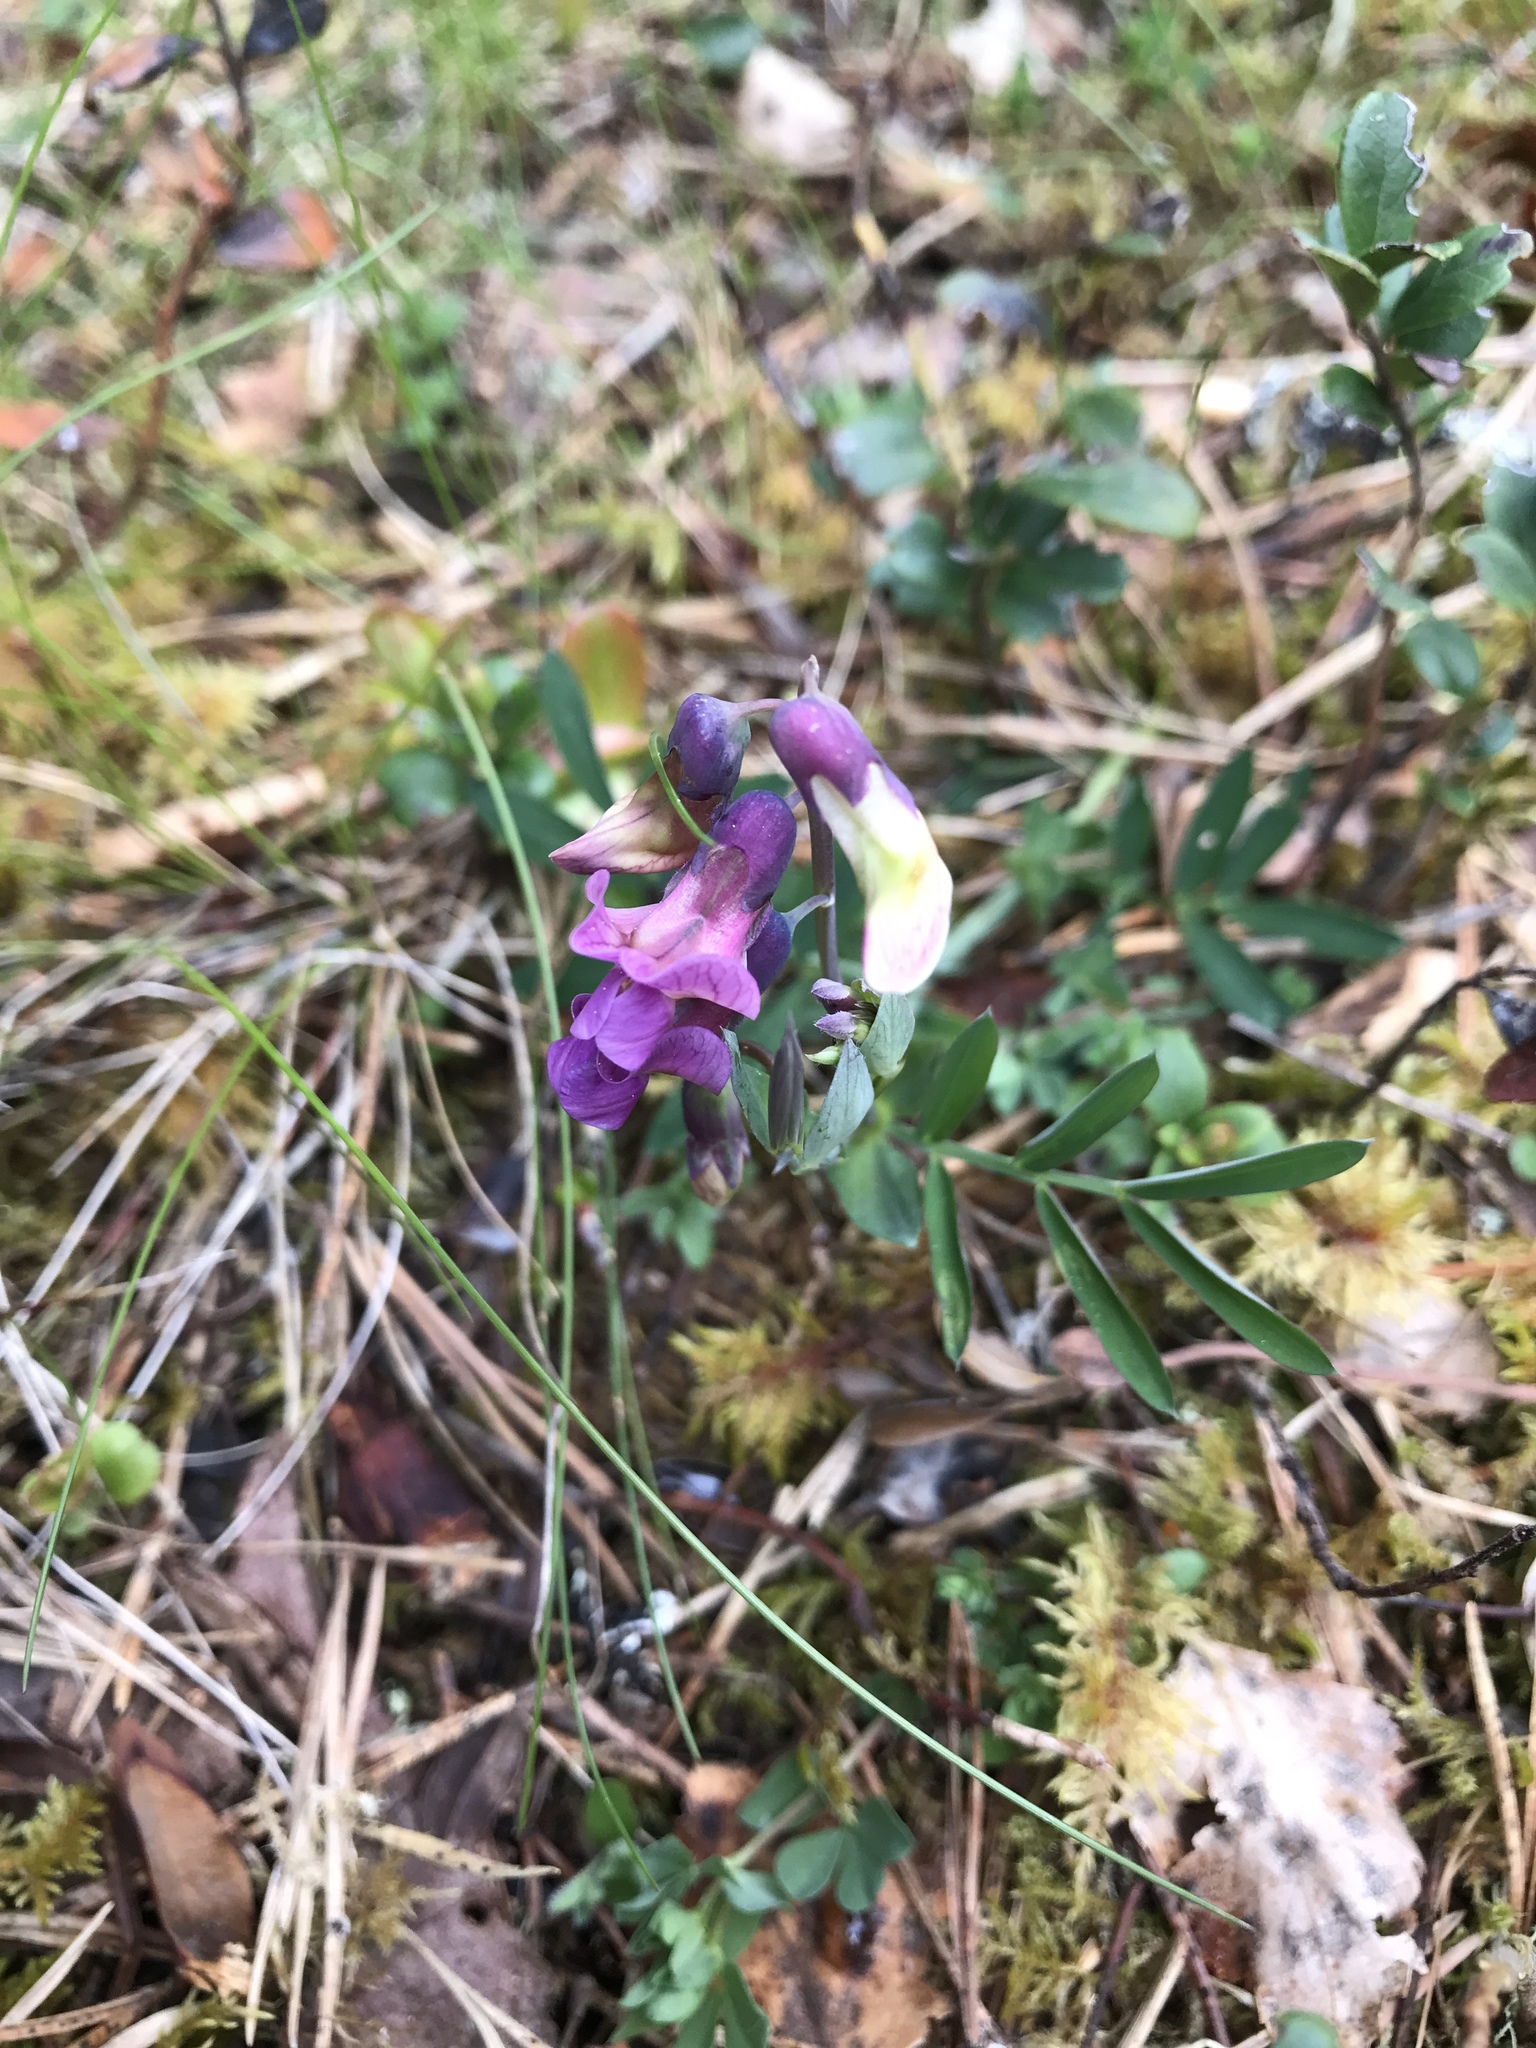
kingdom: Plantae
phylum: Tracheophyta
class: Magnoliopsida
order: Fabales
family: Fabaceae
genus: Lathyrus
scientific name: Lathyrus linifolius
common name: Bitter-vetch
